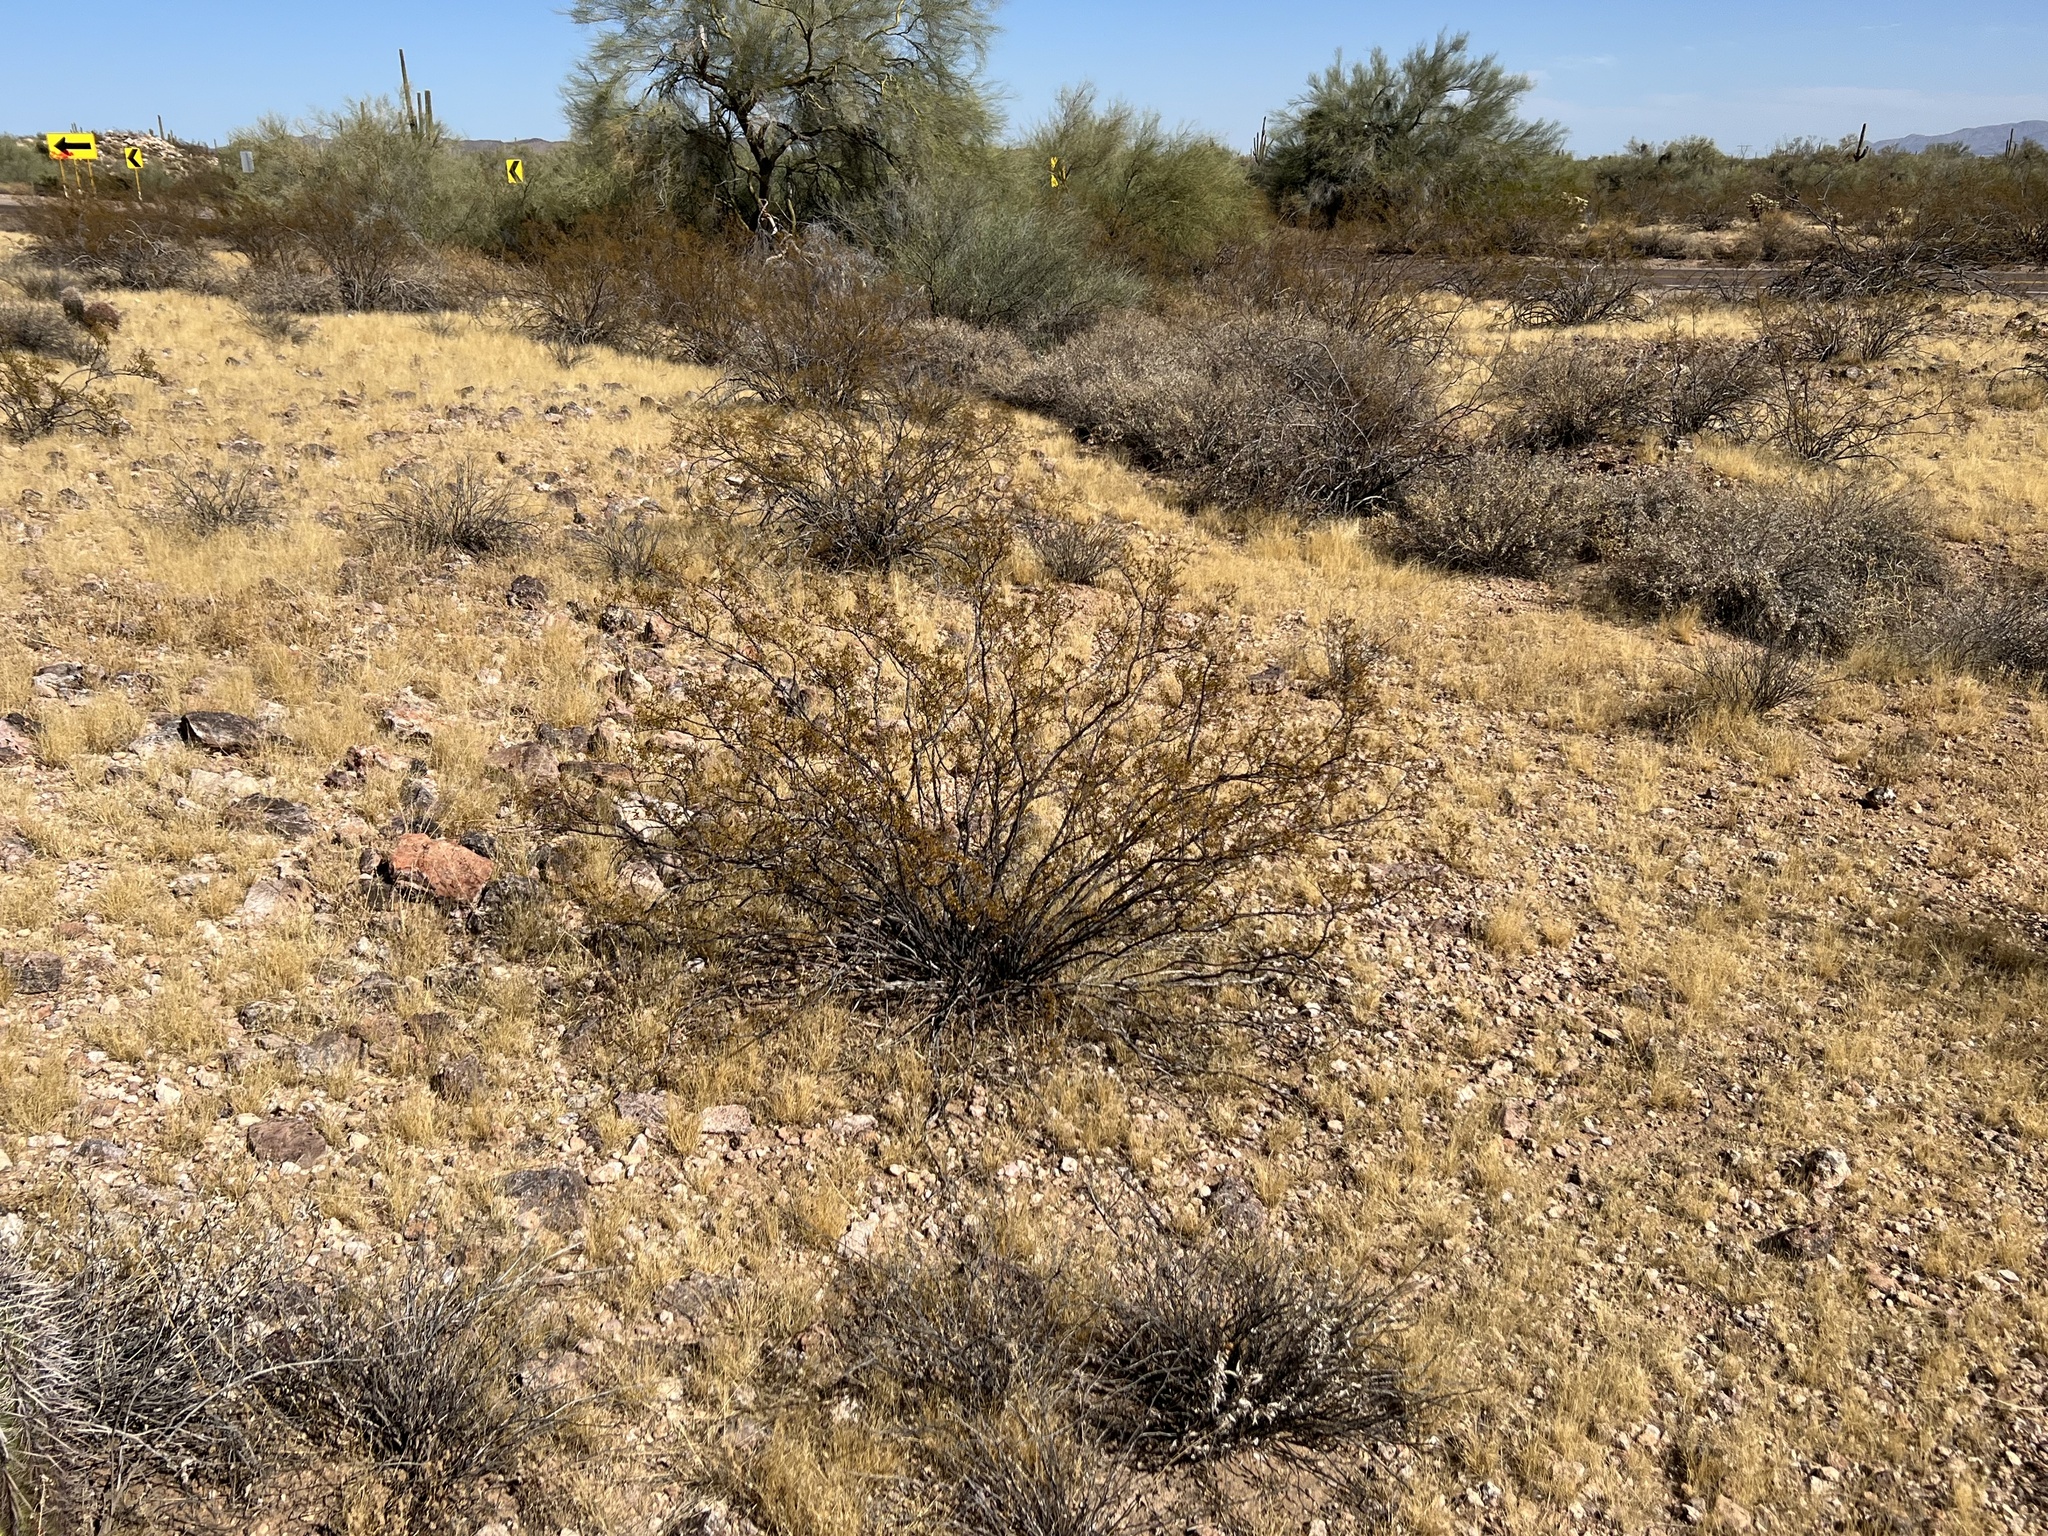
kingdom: Plantae
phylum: Tracheophyta
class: Magnoliopsida
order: Zygophyllales
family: Zygophyllaceae
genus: Larrea
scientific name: Larrea tridentata
